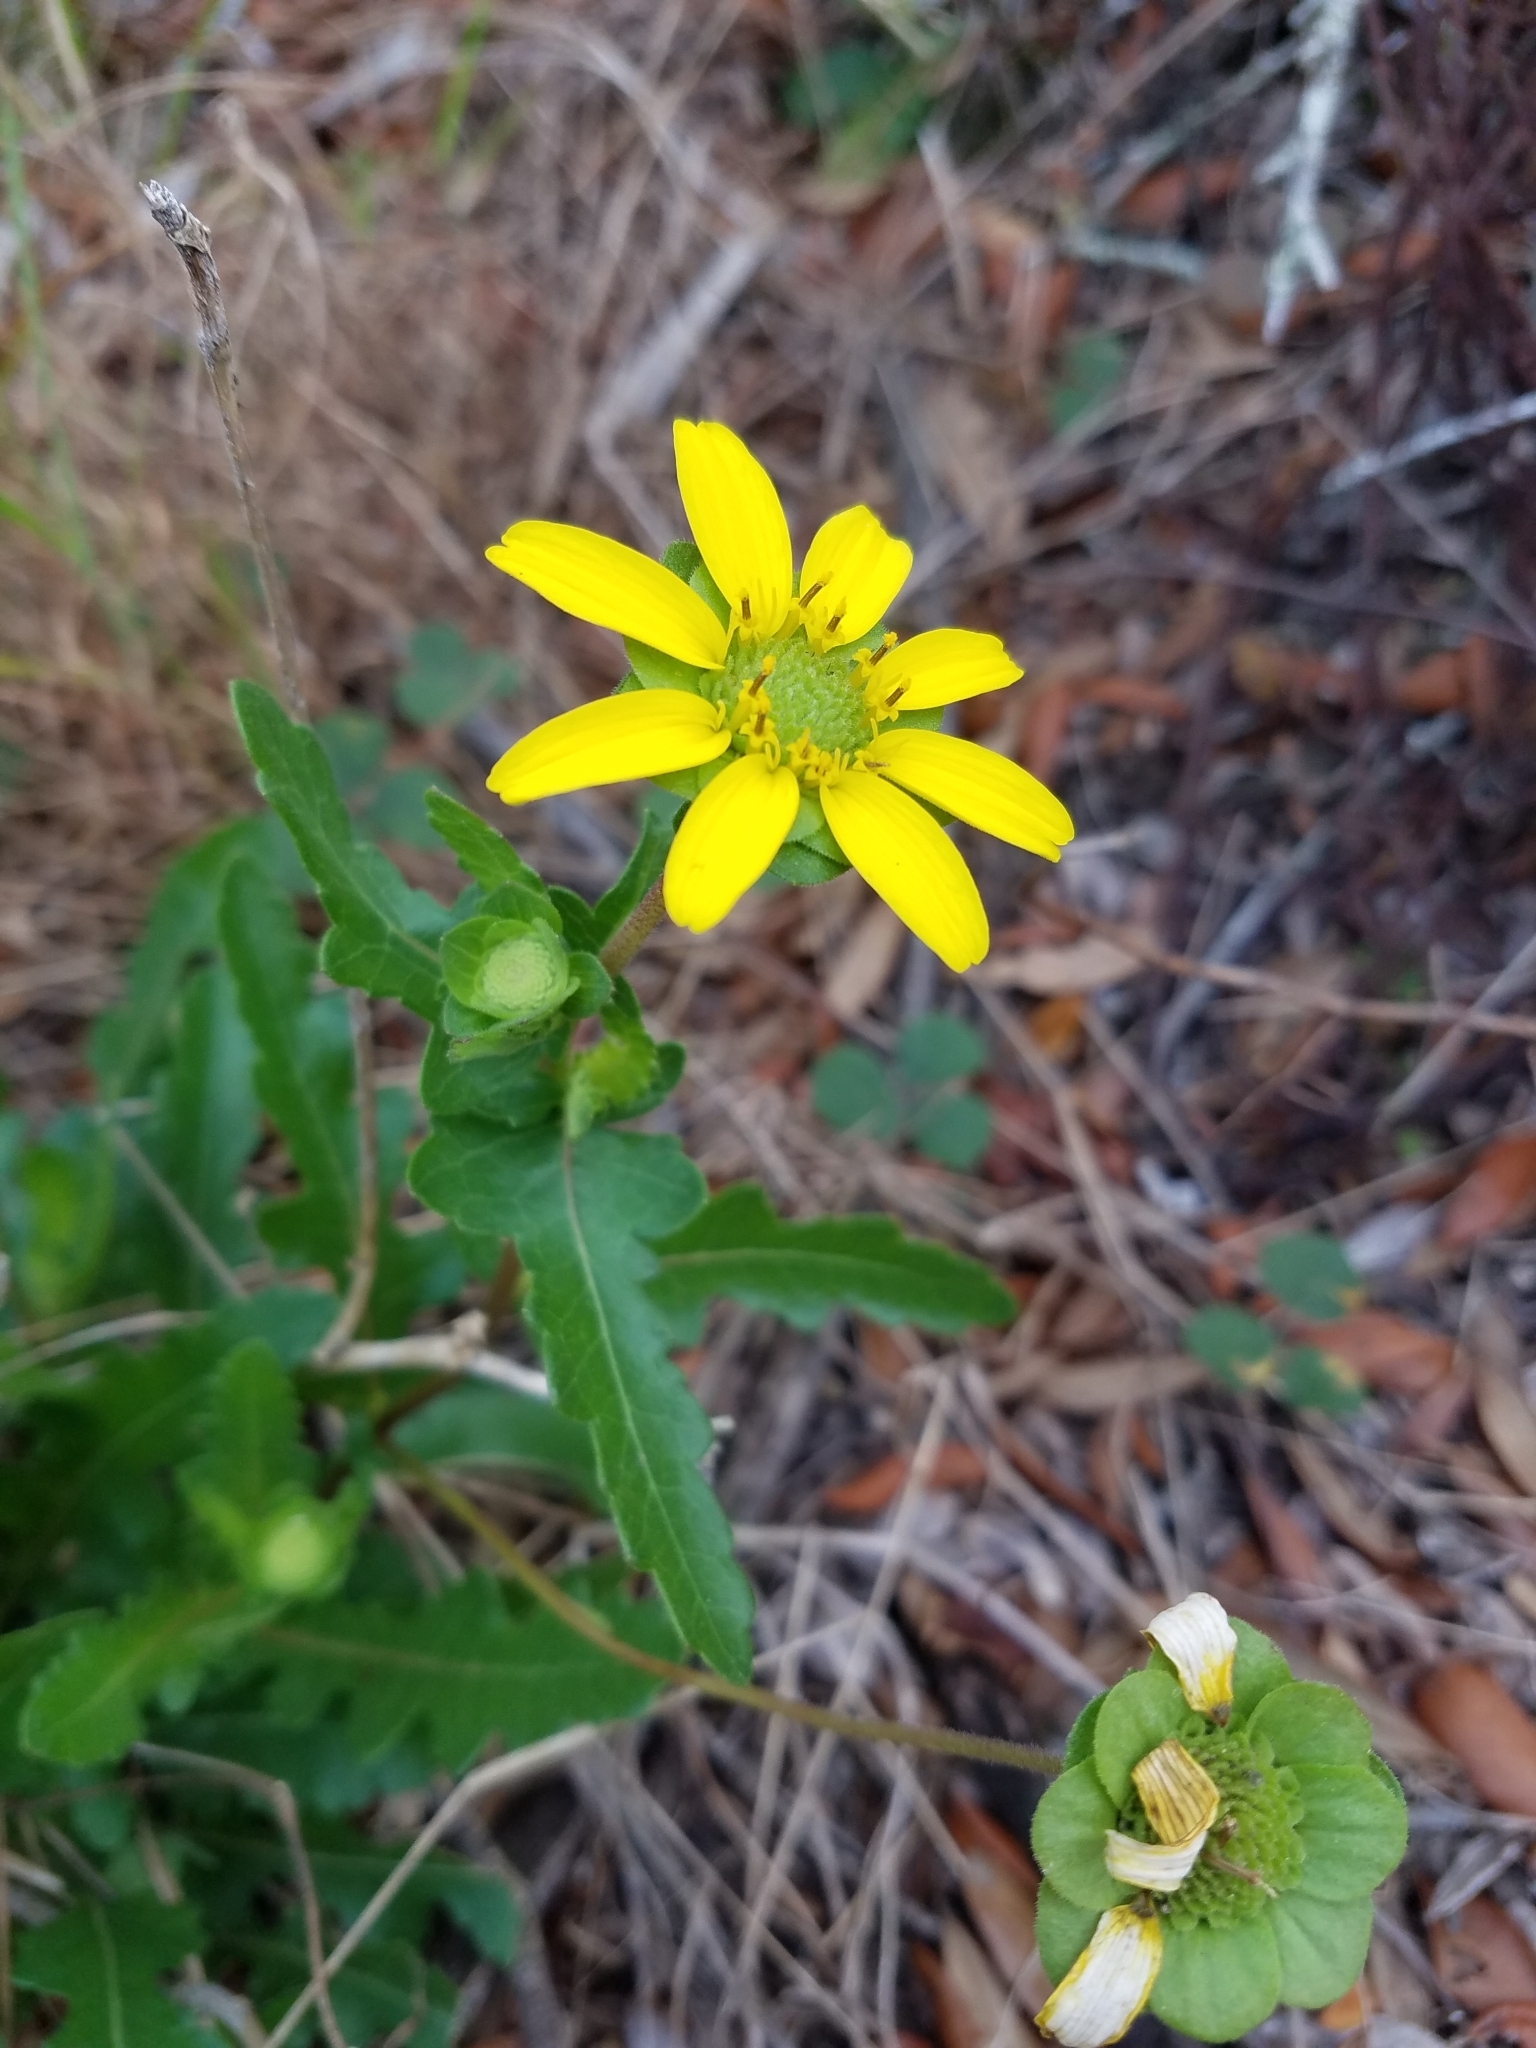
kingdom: Plantae
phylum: Tracheophyta
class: Magnoliopsida
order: Asterales
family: Asteraceae
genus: Berlandiera
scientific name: Berlandiera subacaulis
